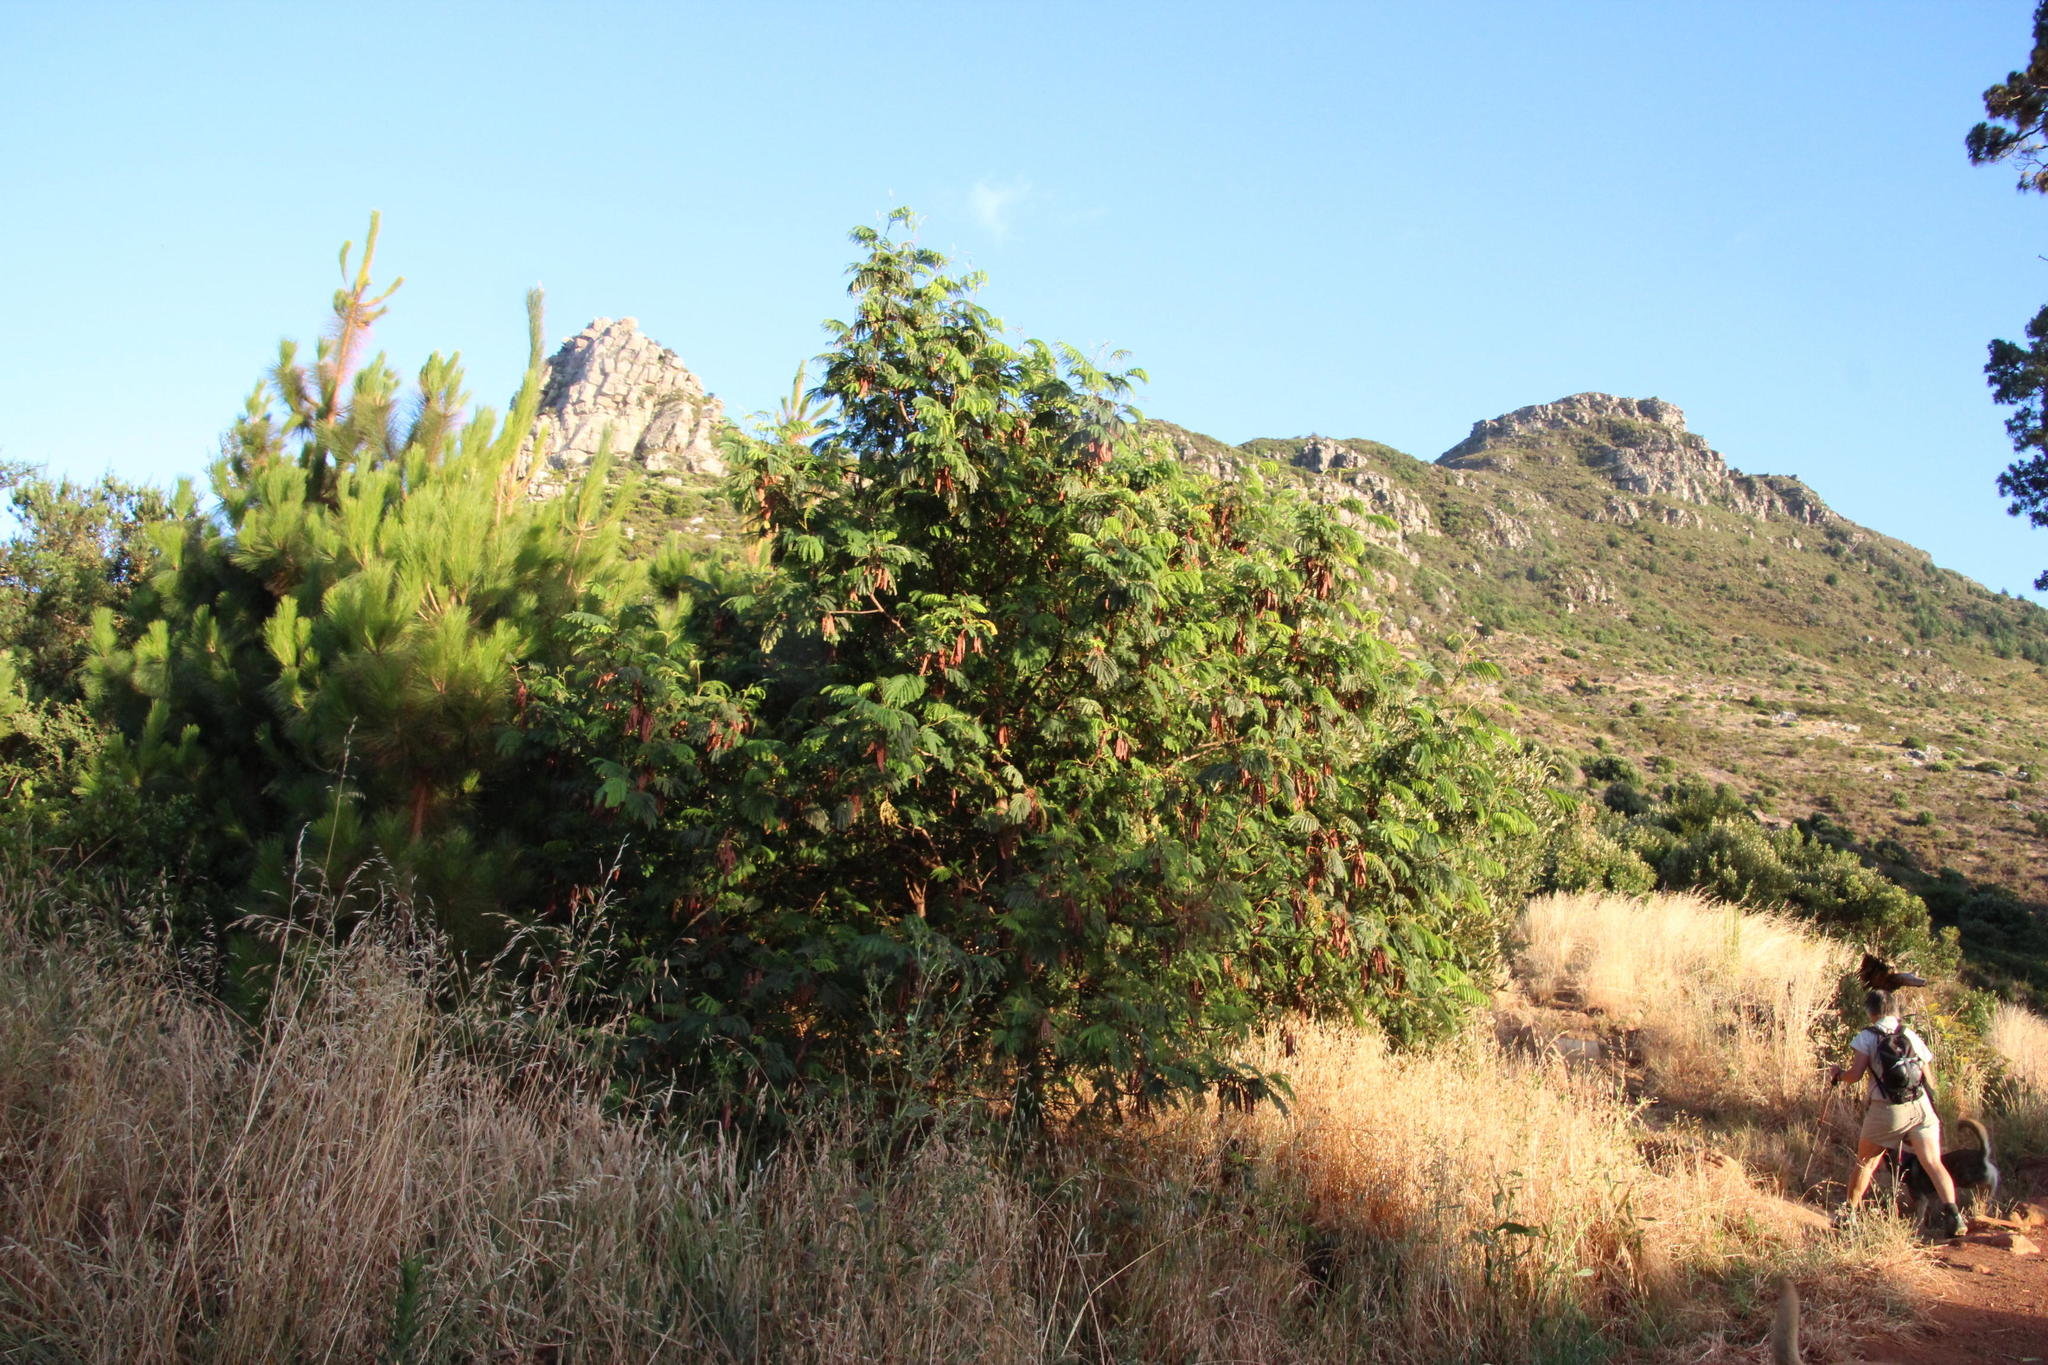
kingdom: Plantae
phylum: Tracheophyta
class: Magnoliopsida
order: Fabales
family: Fabaceae
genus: Paraserianthes
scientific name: Paraserianthes lophantha
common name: Plume albizia
